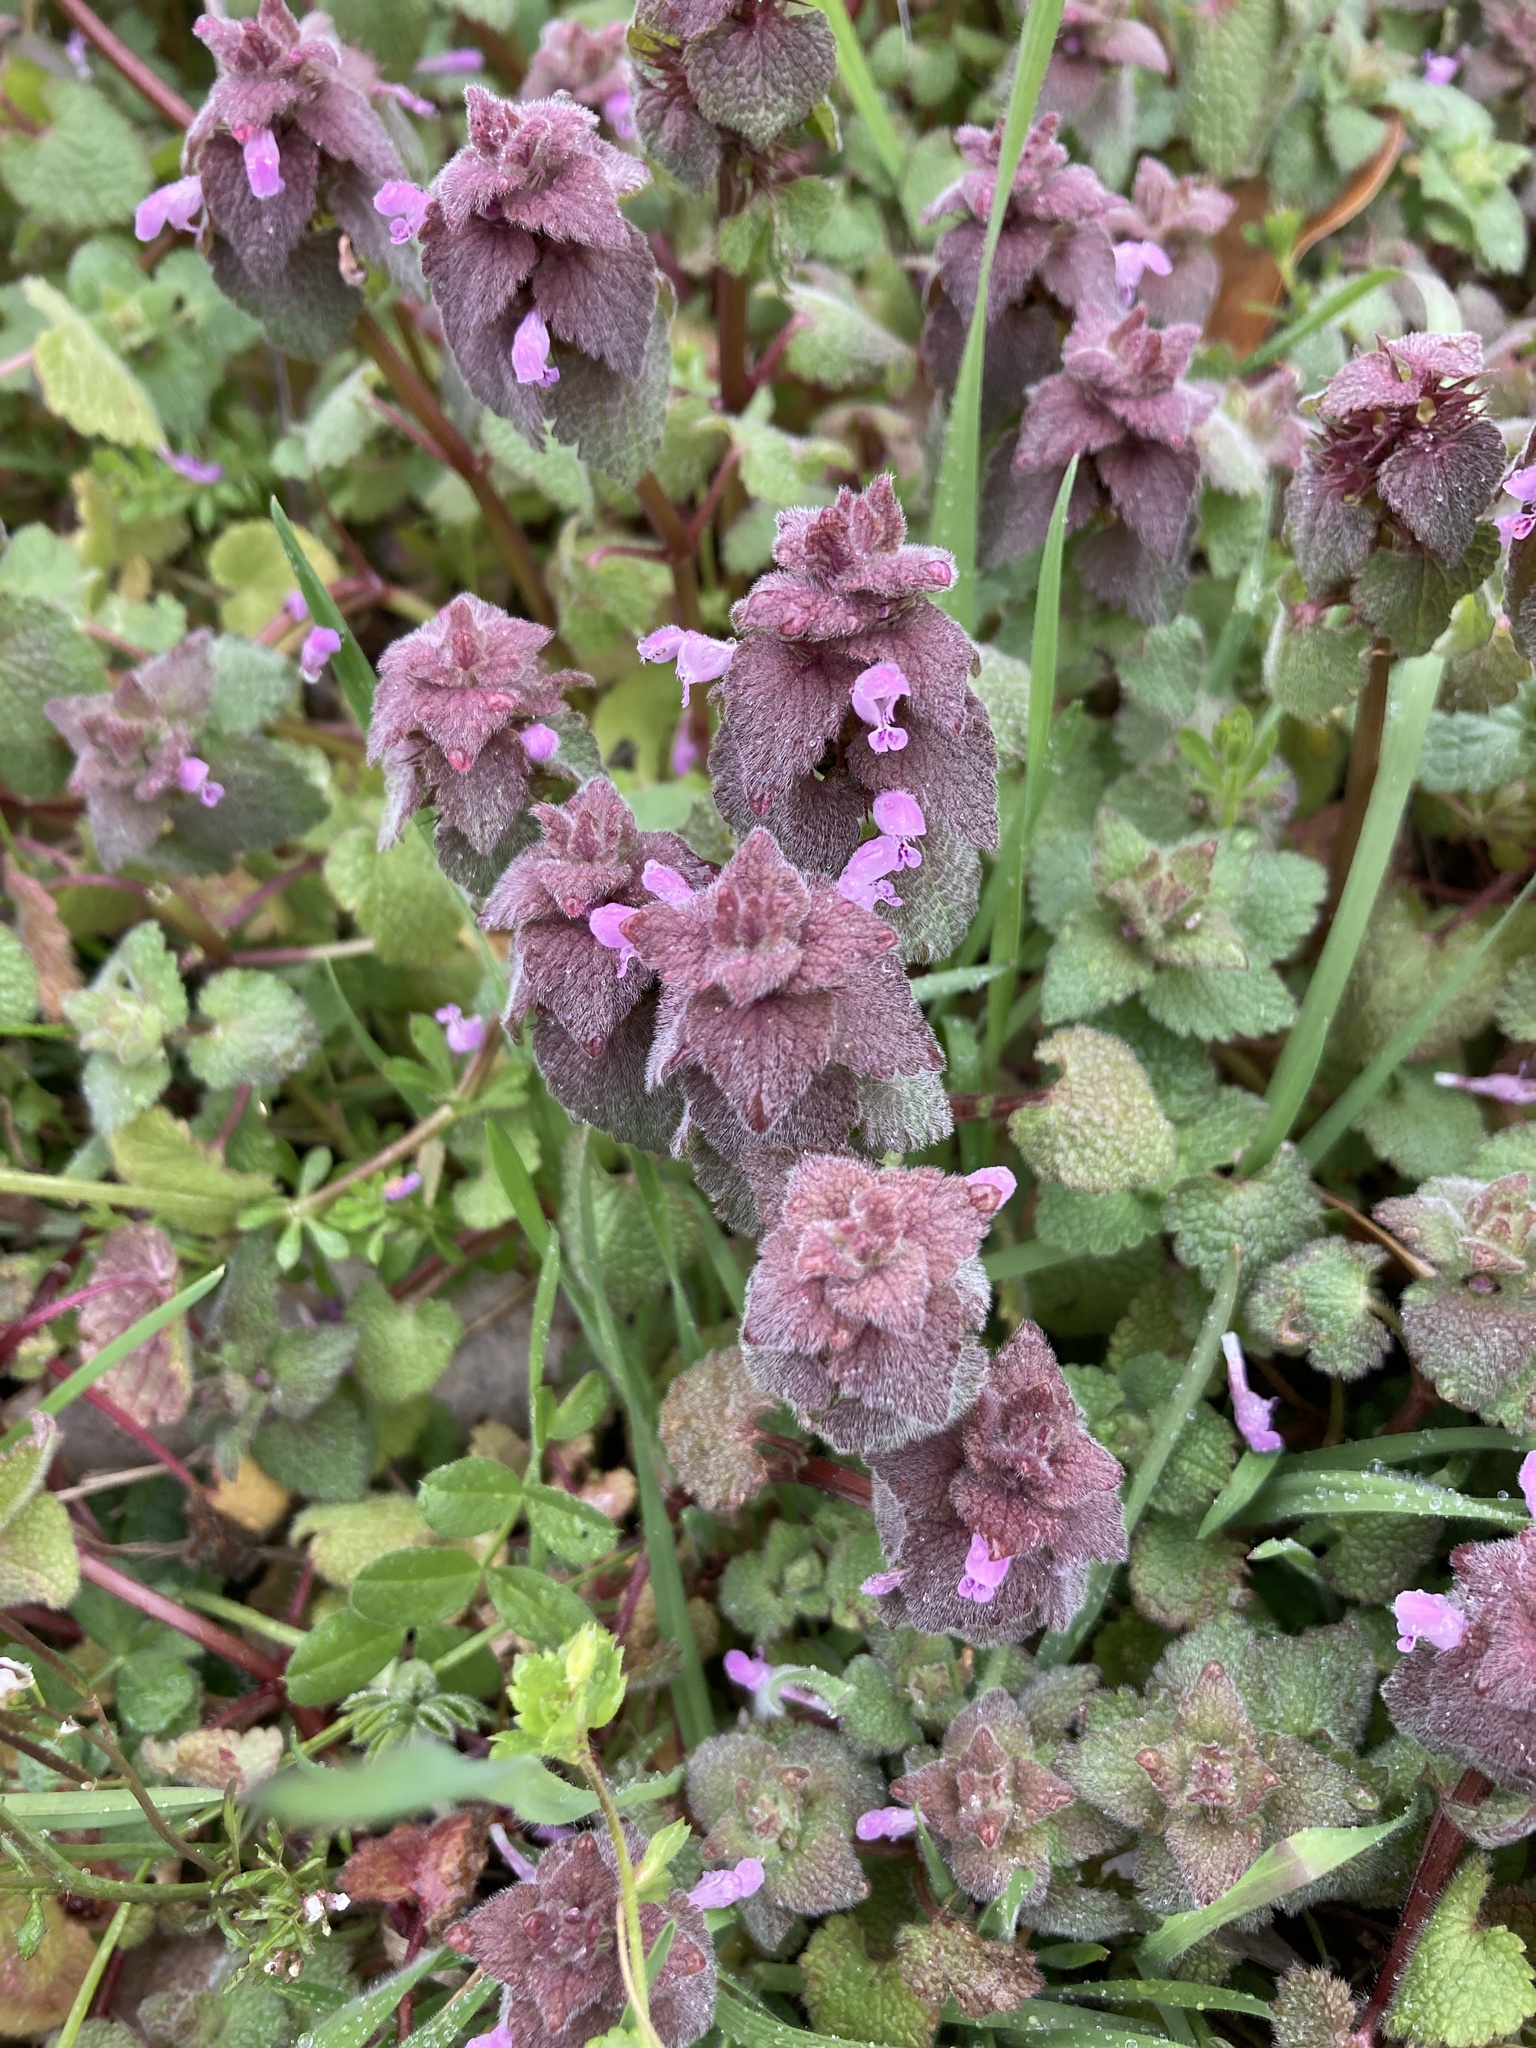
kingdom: Plantae
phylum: Tracheophyta
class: Magnoliopsida
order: Lamiales
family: Lamiaceae
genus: Lamium
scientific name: Lamium purpureum
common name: Red dead-nettle
